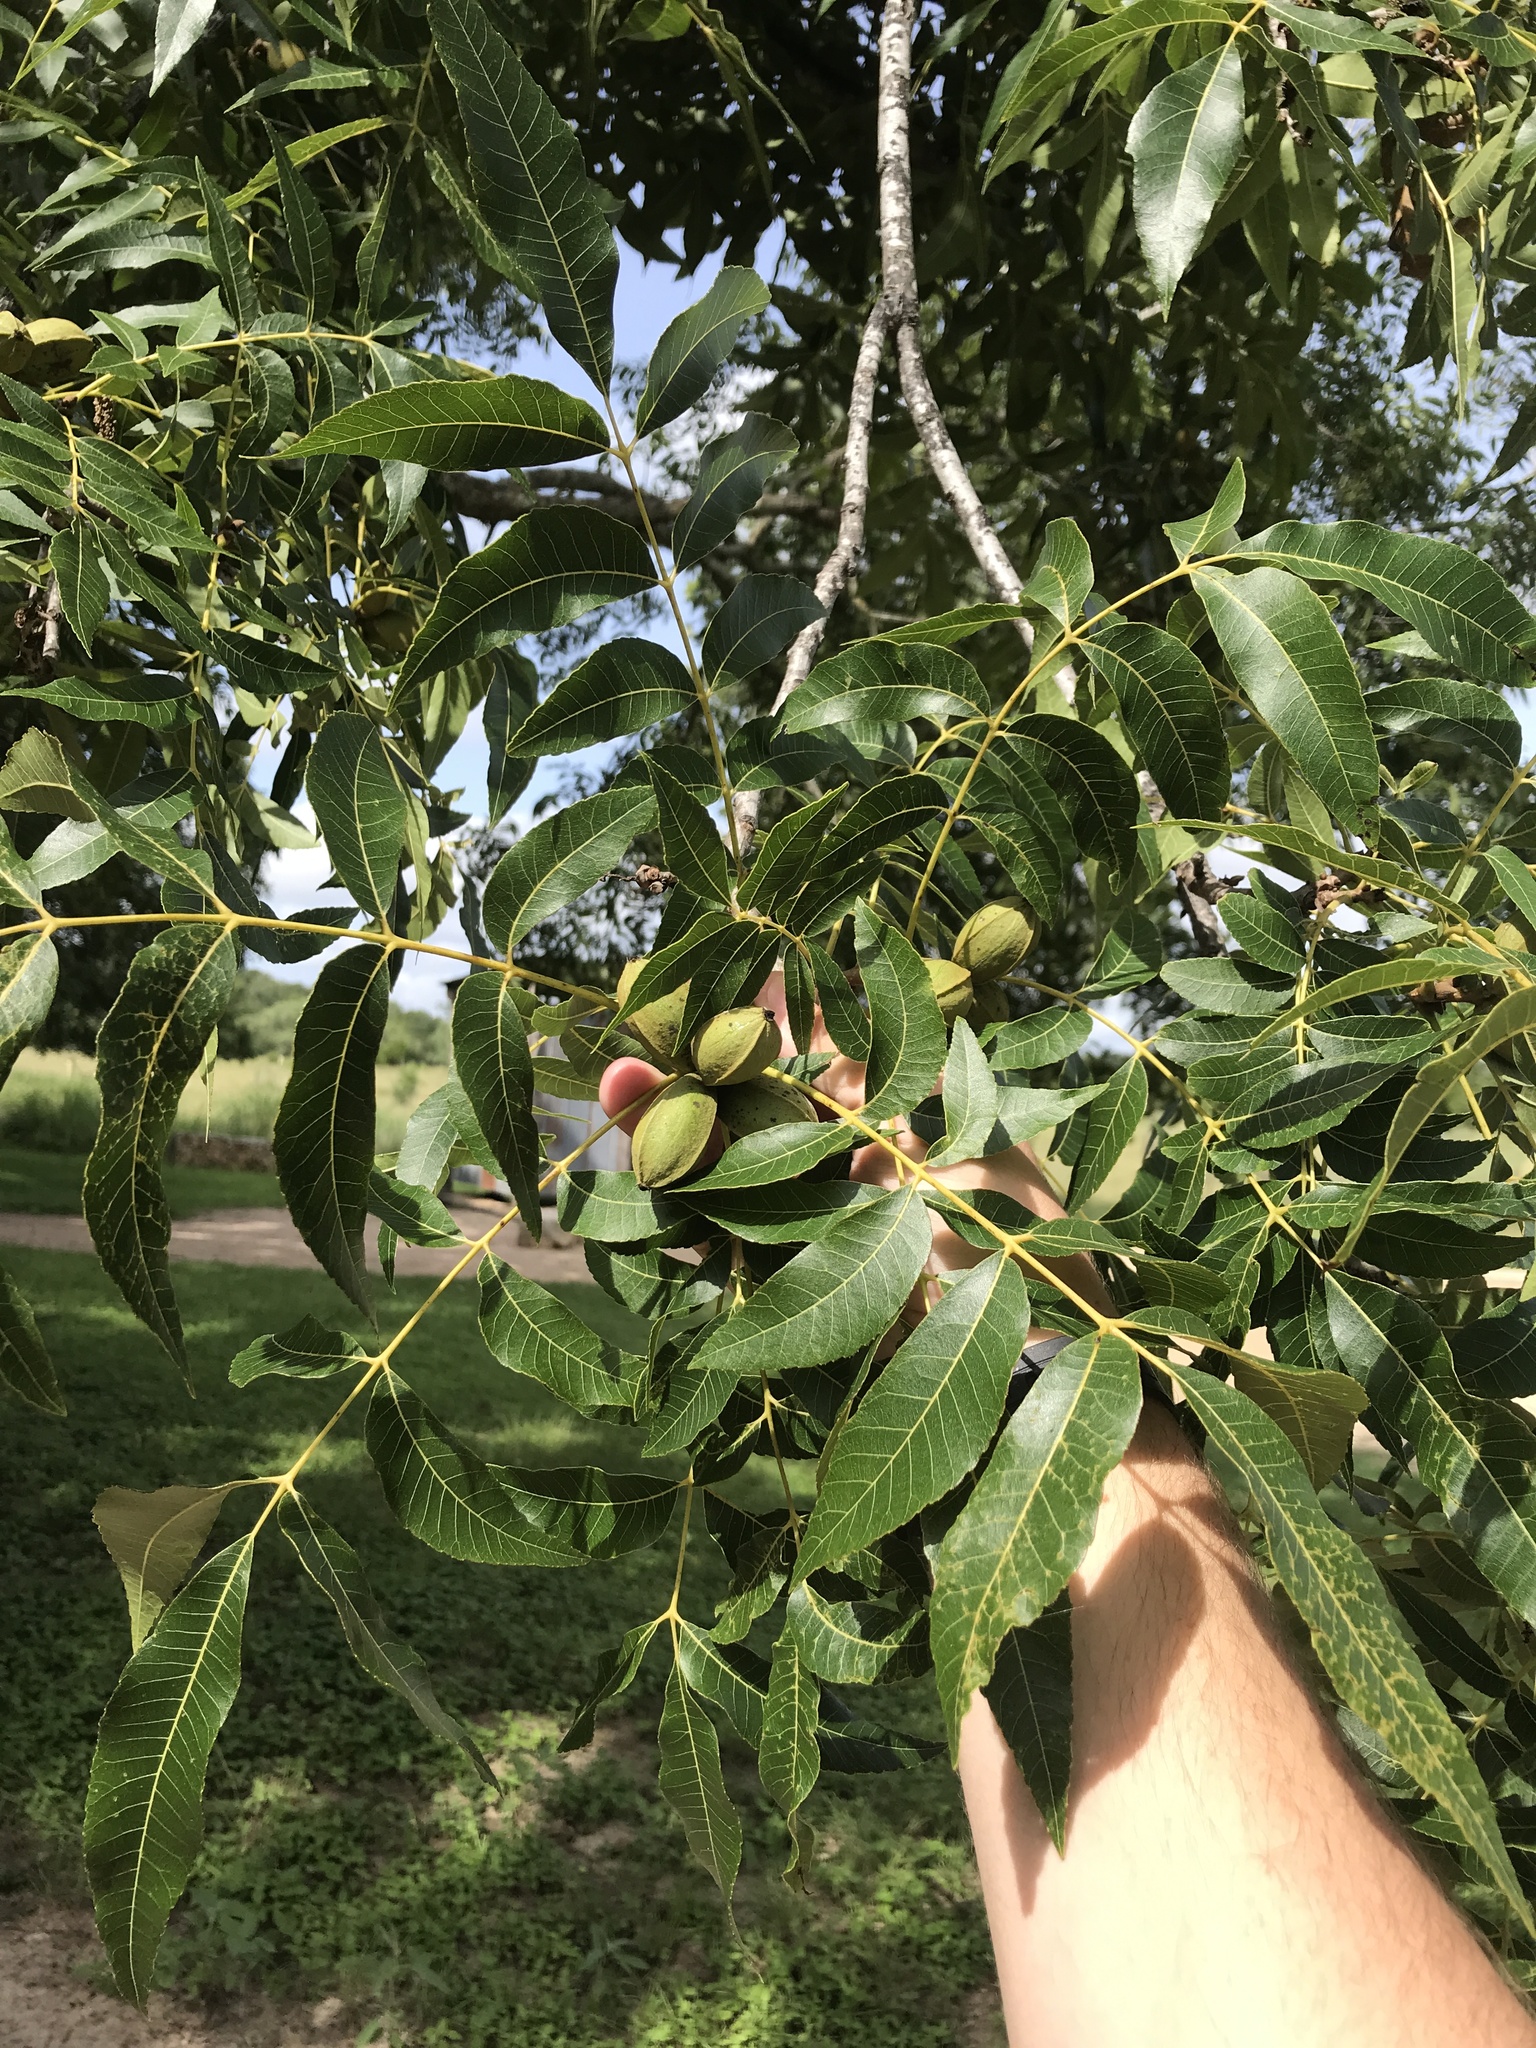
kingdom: Plantae
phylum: Tracheophyta
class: Magnoliopsida
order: Fagales
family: Juglandaceae
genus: Carya
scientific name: Carya illinoinensis
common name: Pecan
